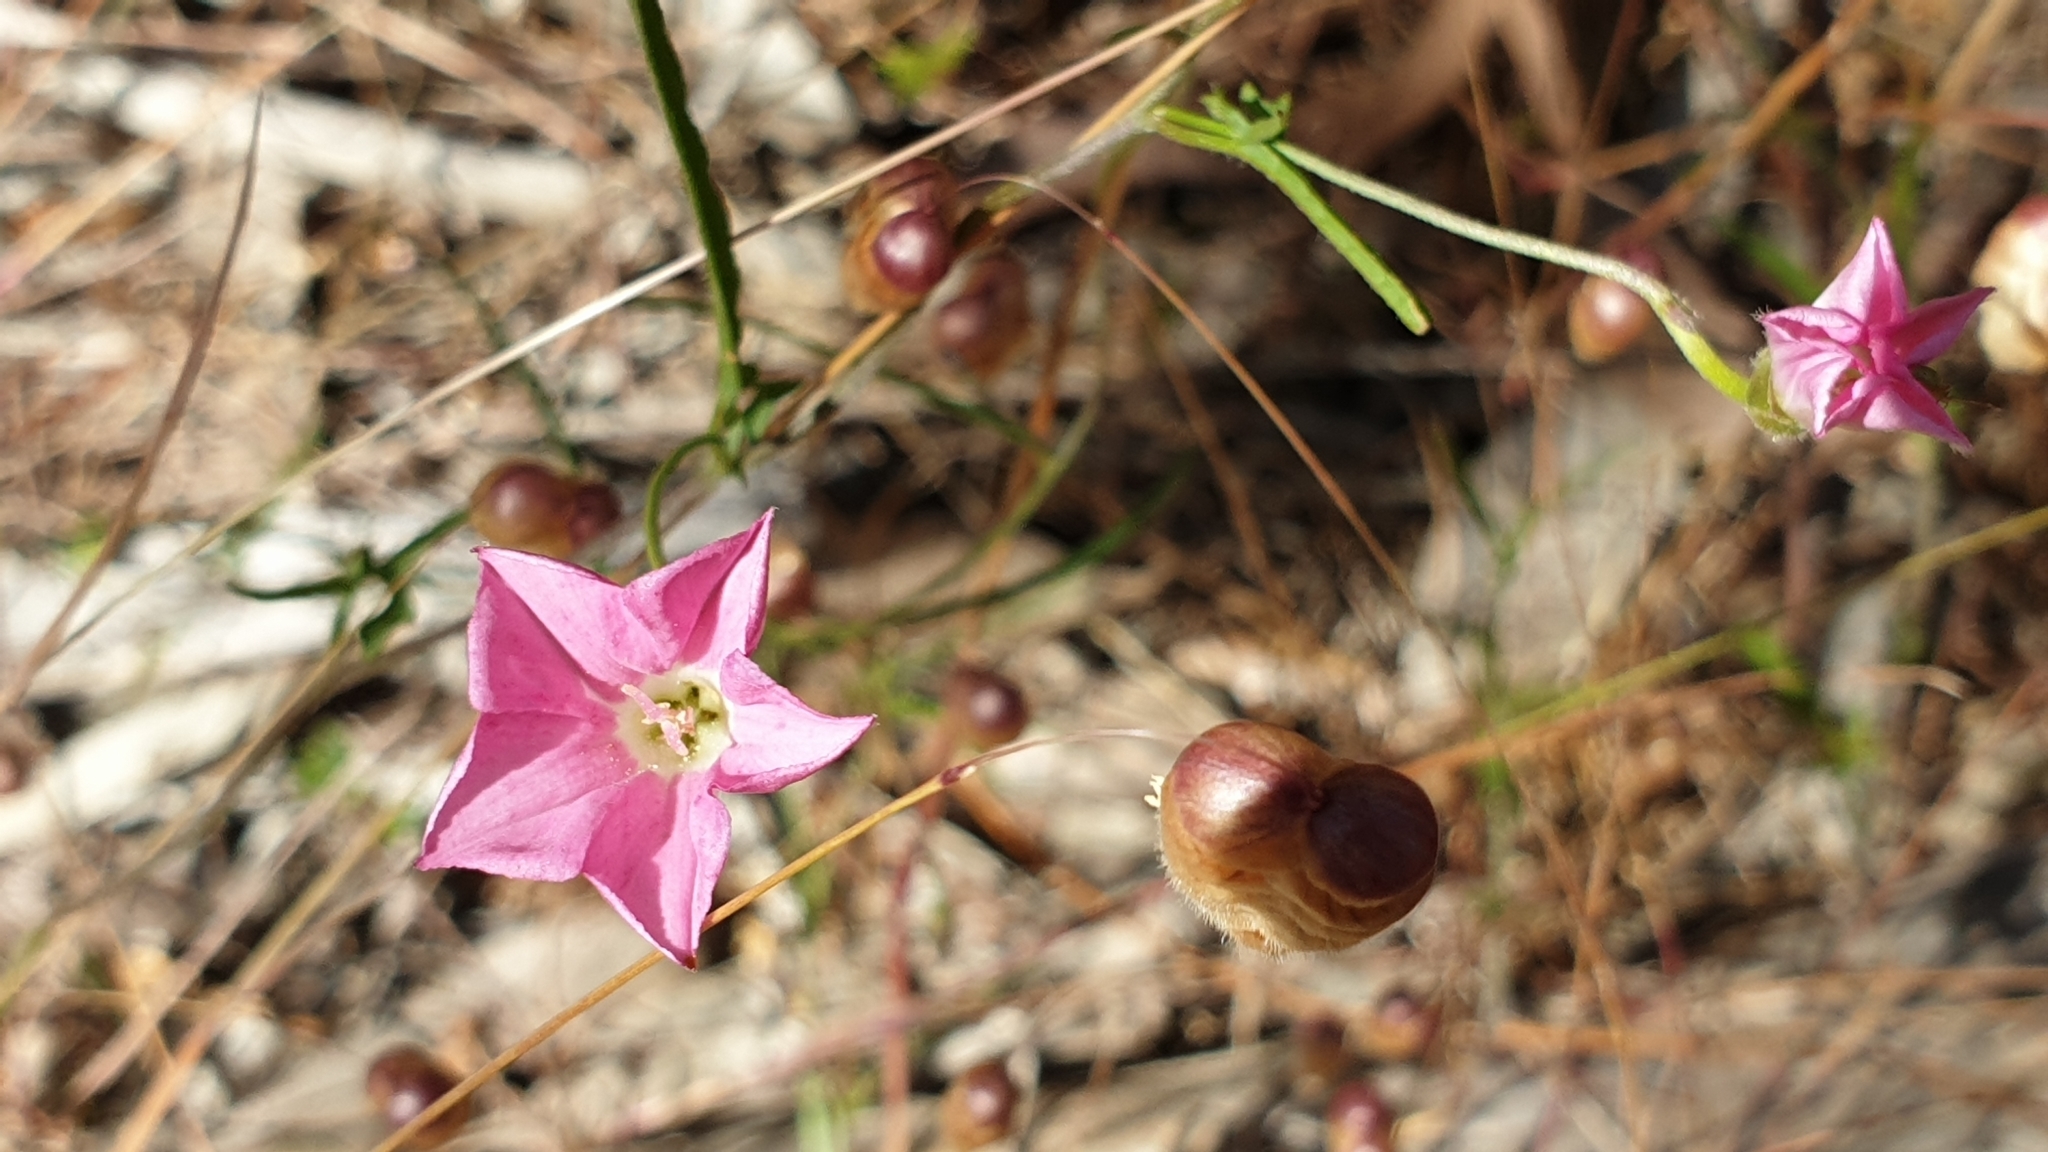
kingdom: Plantae
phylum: Tracheophyta
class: Magnoliopsida
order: Solanales
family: Convolvulaceae
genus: Convolvulus
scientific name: Convolvulus angustissimus
